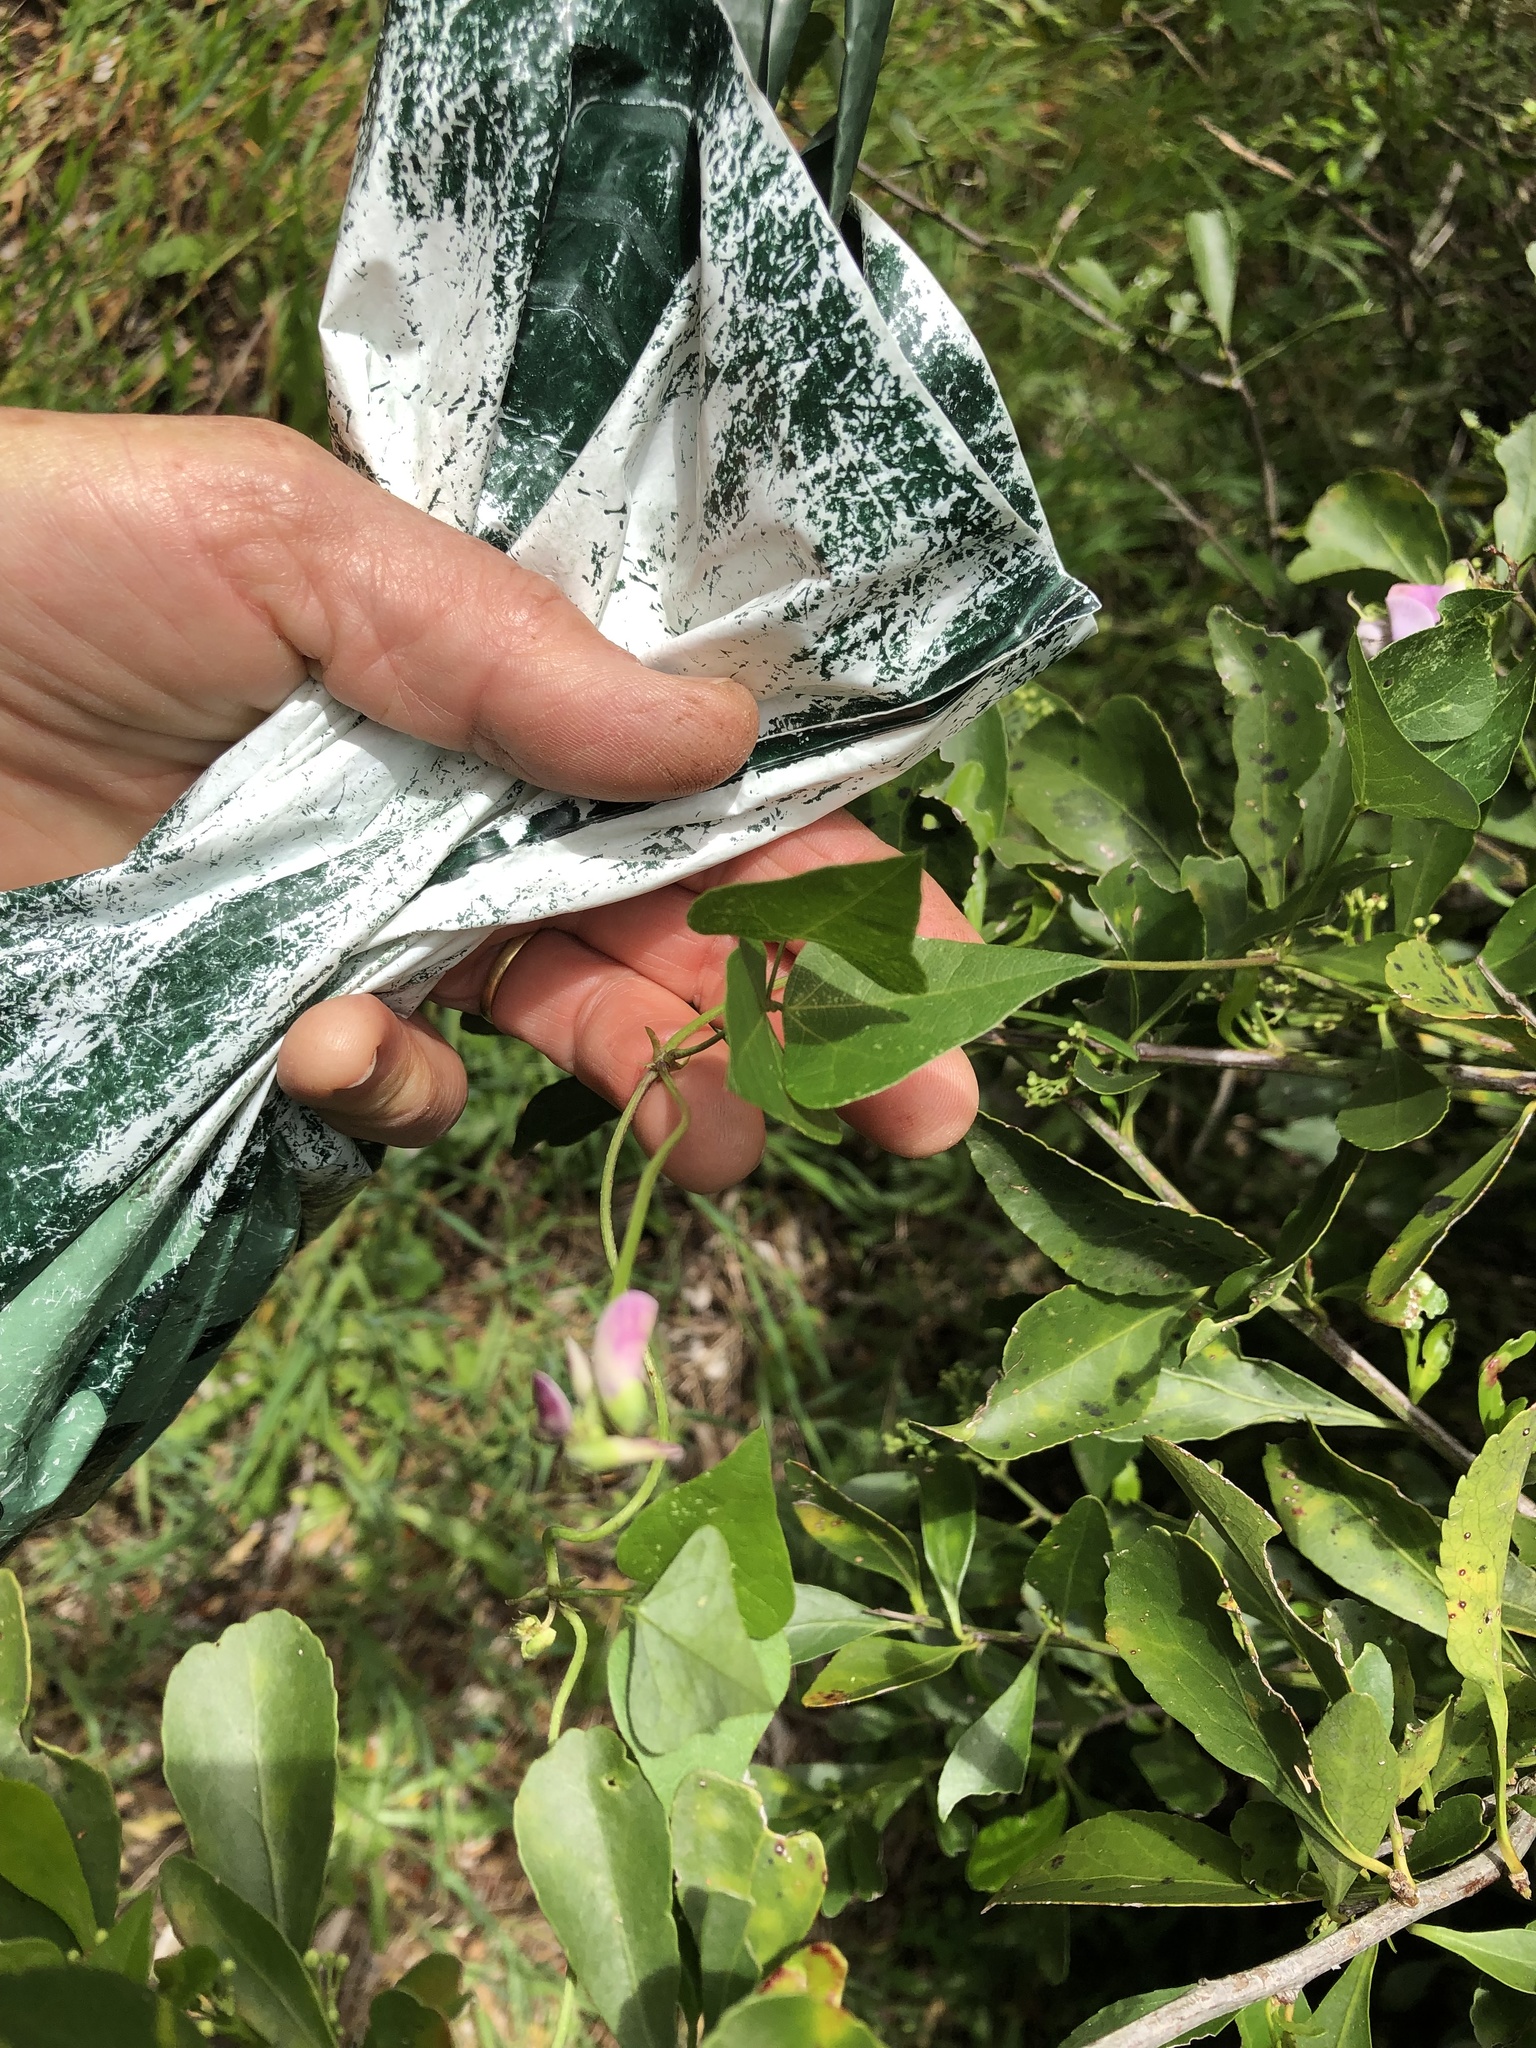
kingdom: Plantae
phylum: Tracheophyta
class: Magnoliopsida
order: Fabales
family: Fabaceae
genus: Dipogon
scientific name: Dipogon lignosus
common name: Okie bean
